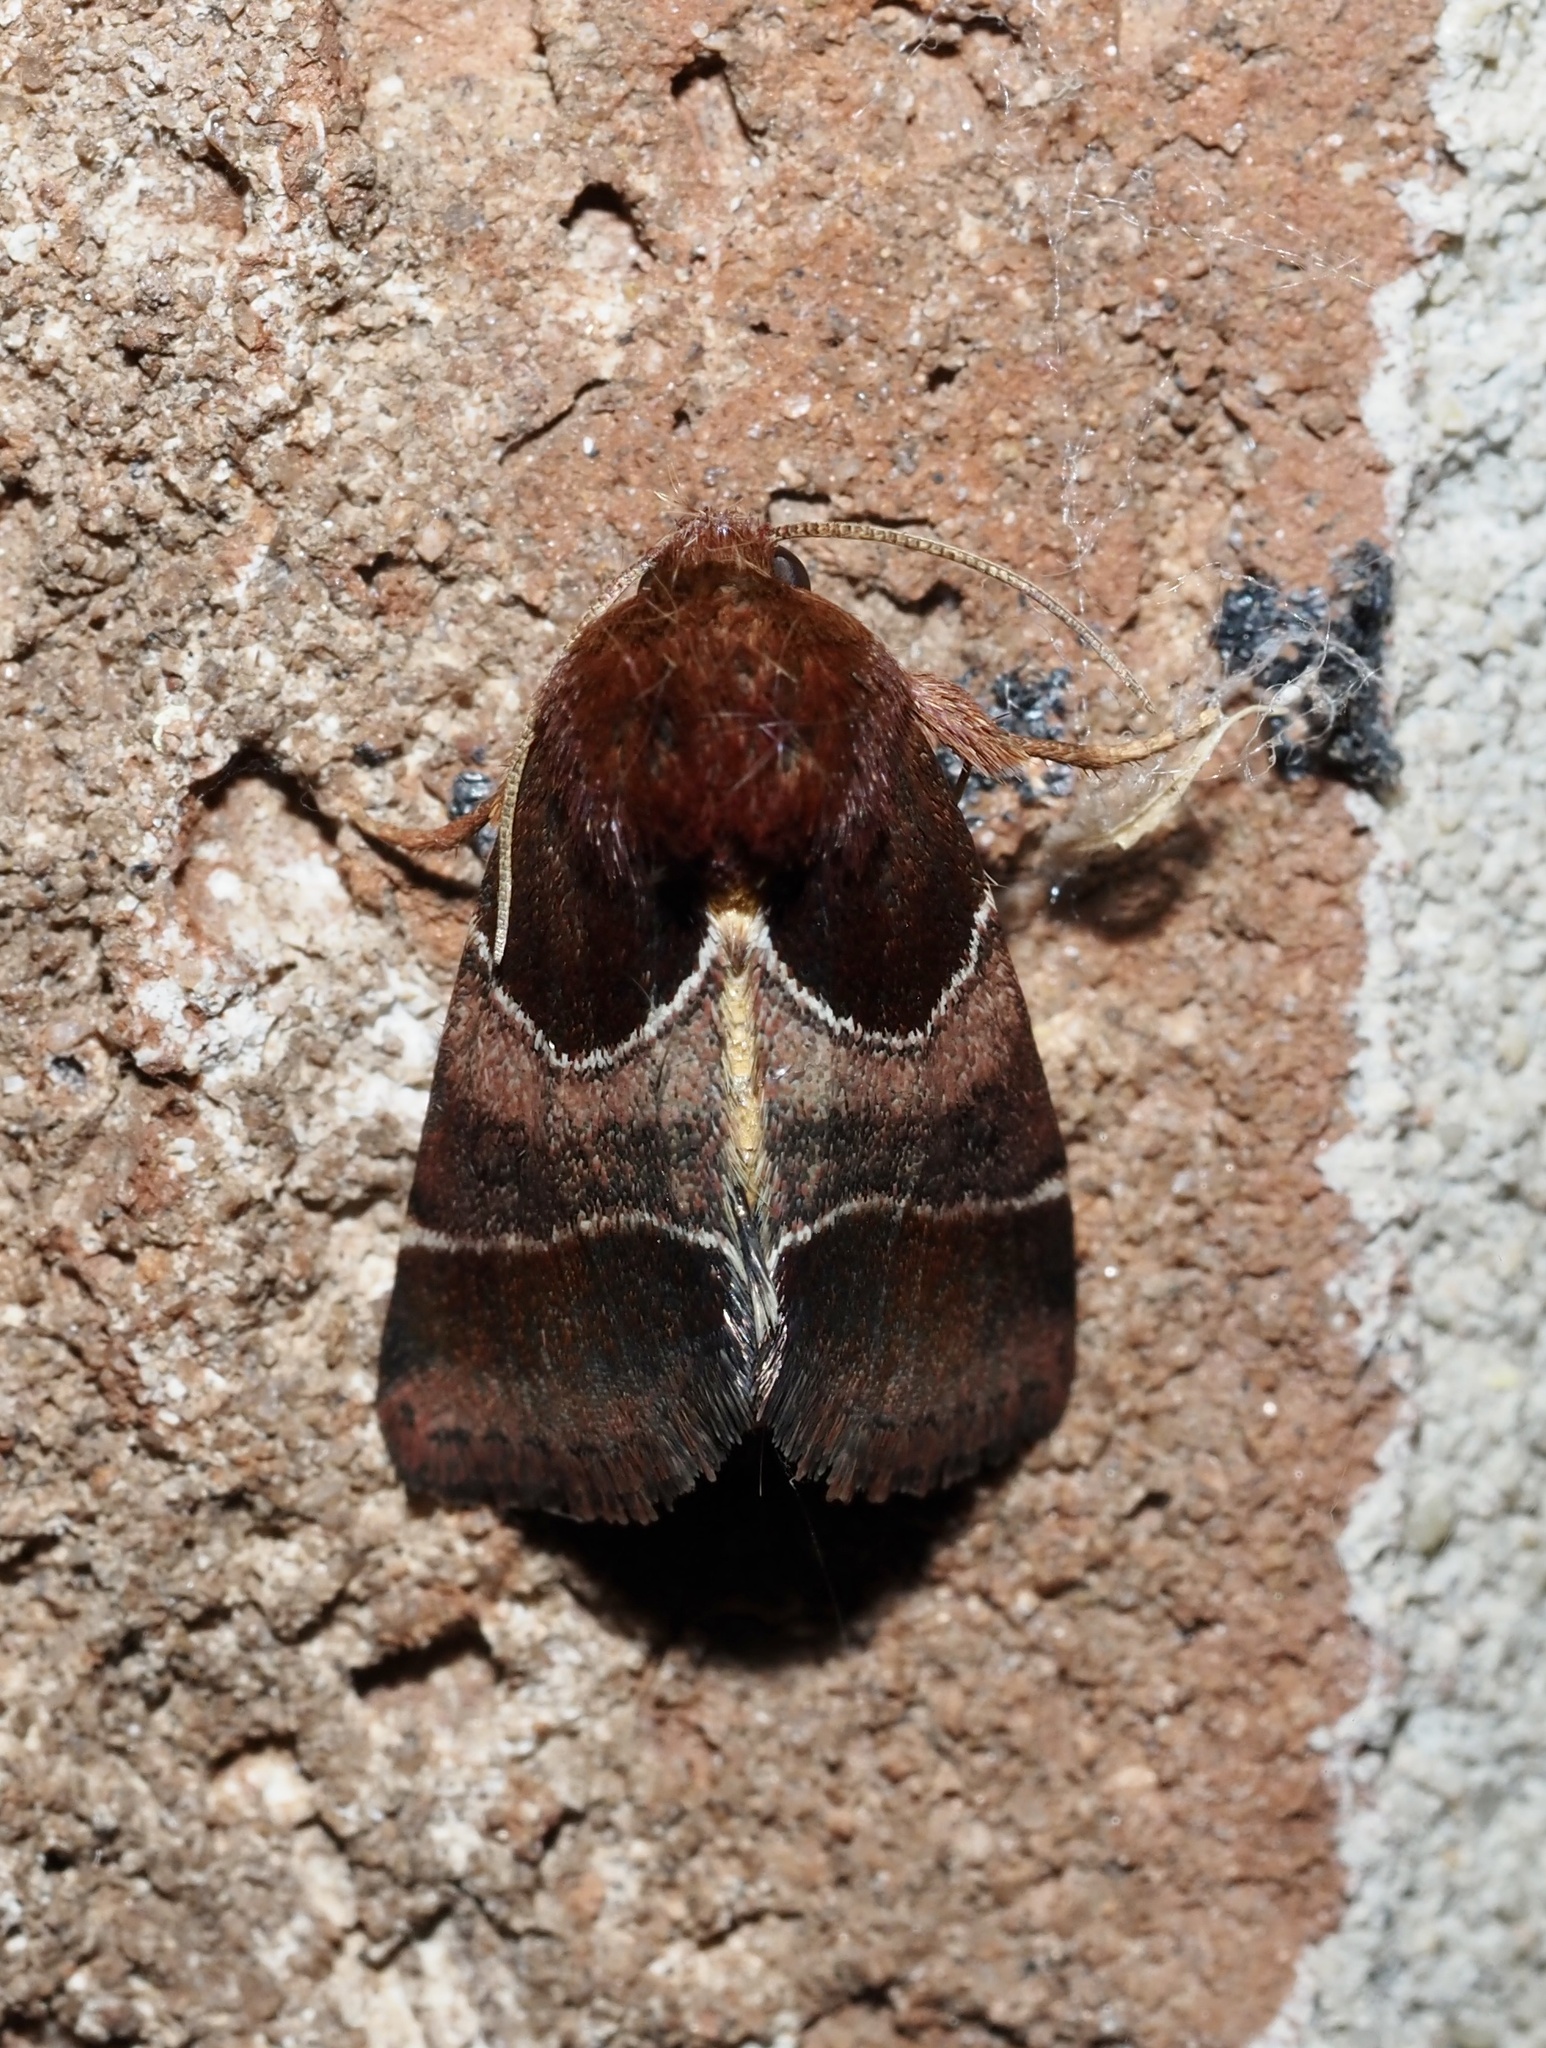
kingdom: Animalia
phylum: Arthropoda
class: Insecta
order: Lepidoptera
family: Noctuidae
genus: Schinia
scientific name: Schinia arcigera
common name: Arcigera flower moth
